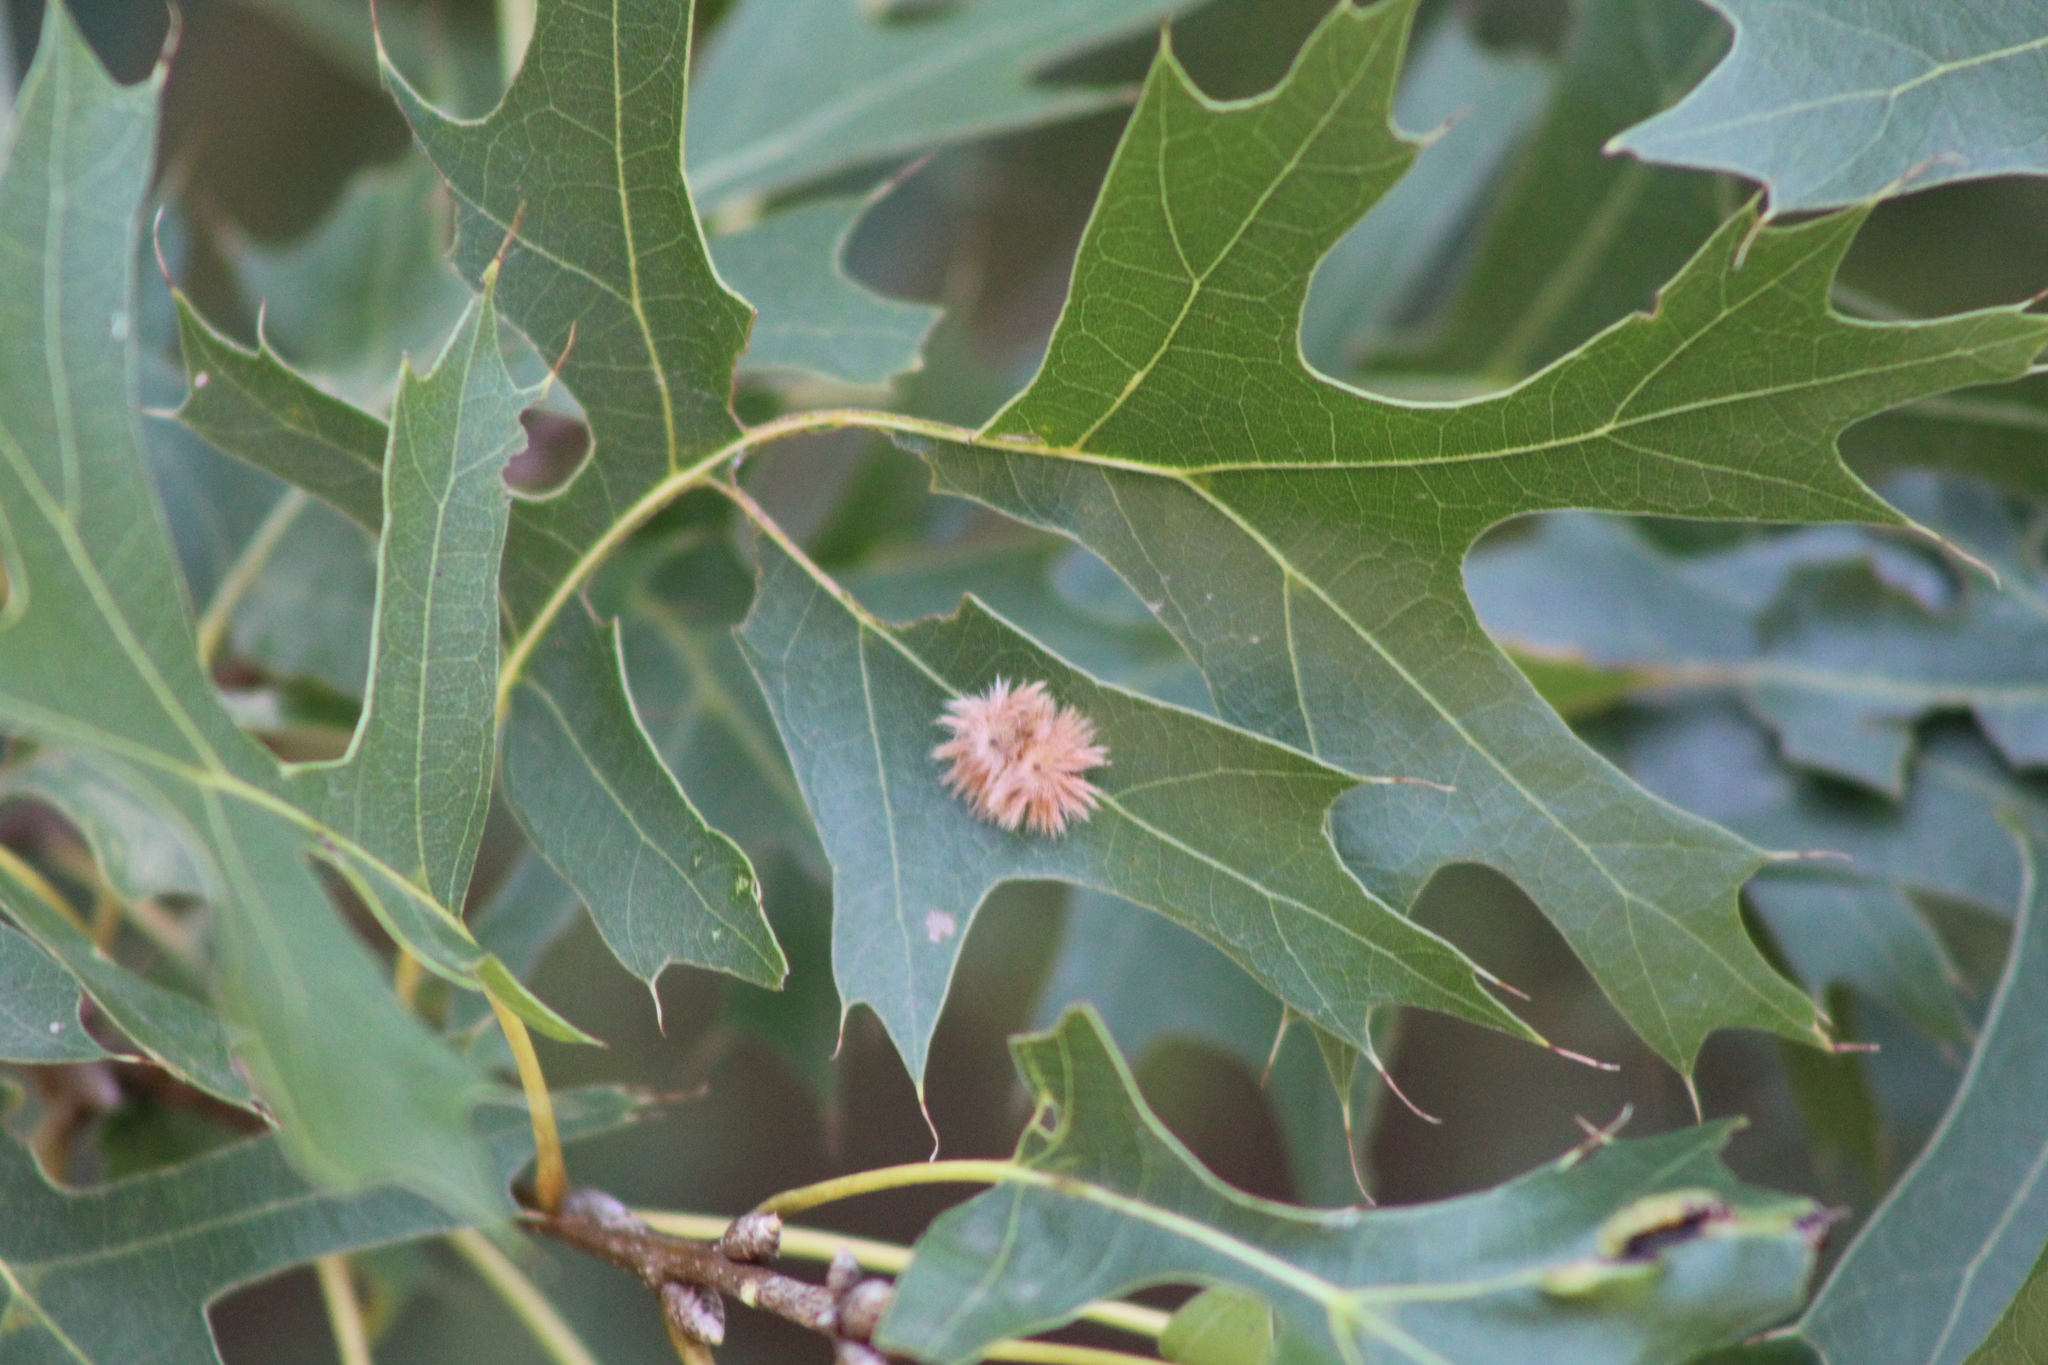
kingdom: Animalia
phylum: Arthropoda
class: Insecta
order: Hymenoptera
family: Cynipidae
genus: Callirhytis
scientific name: Callirhytis
